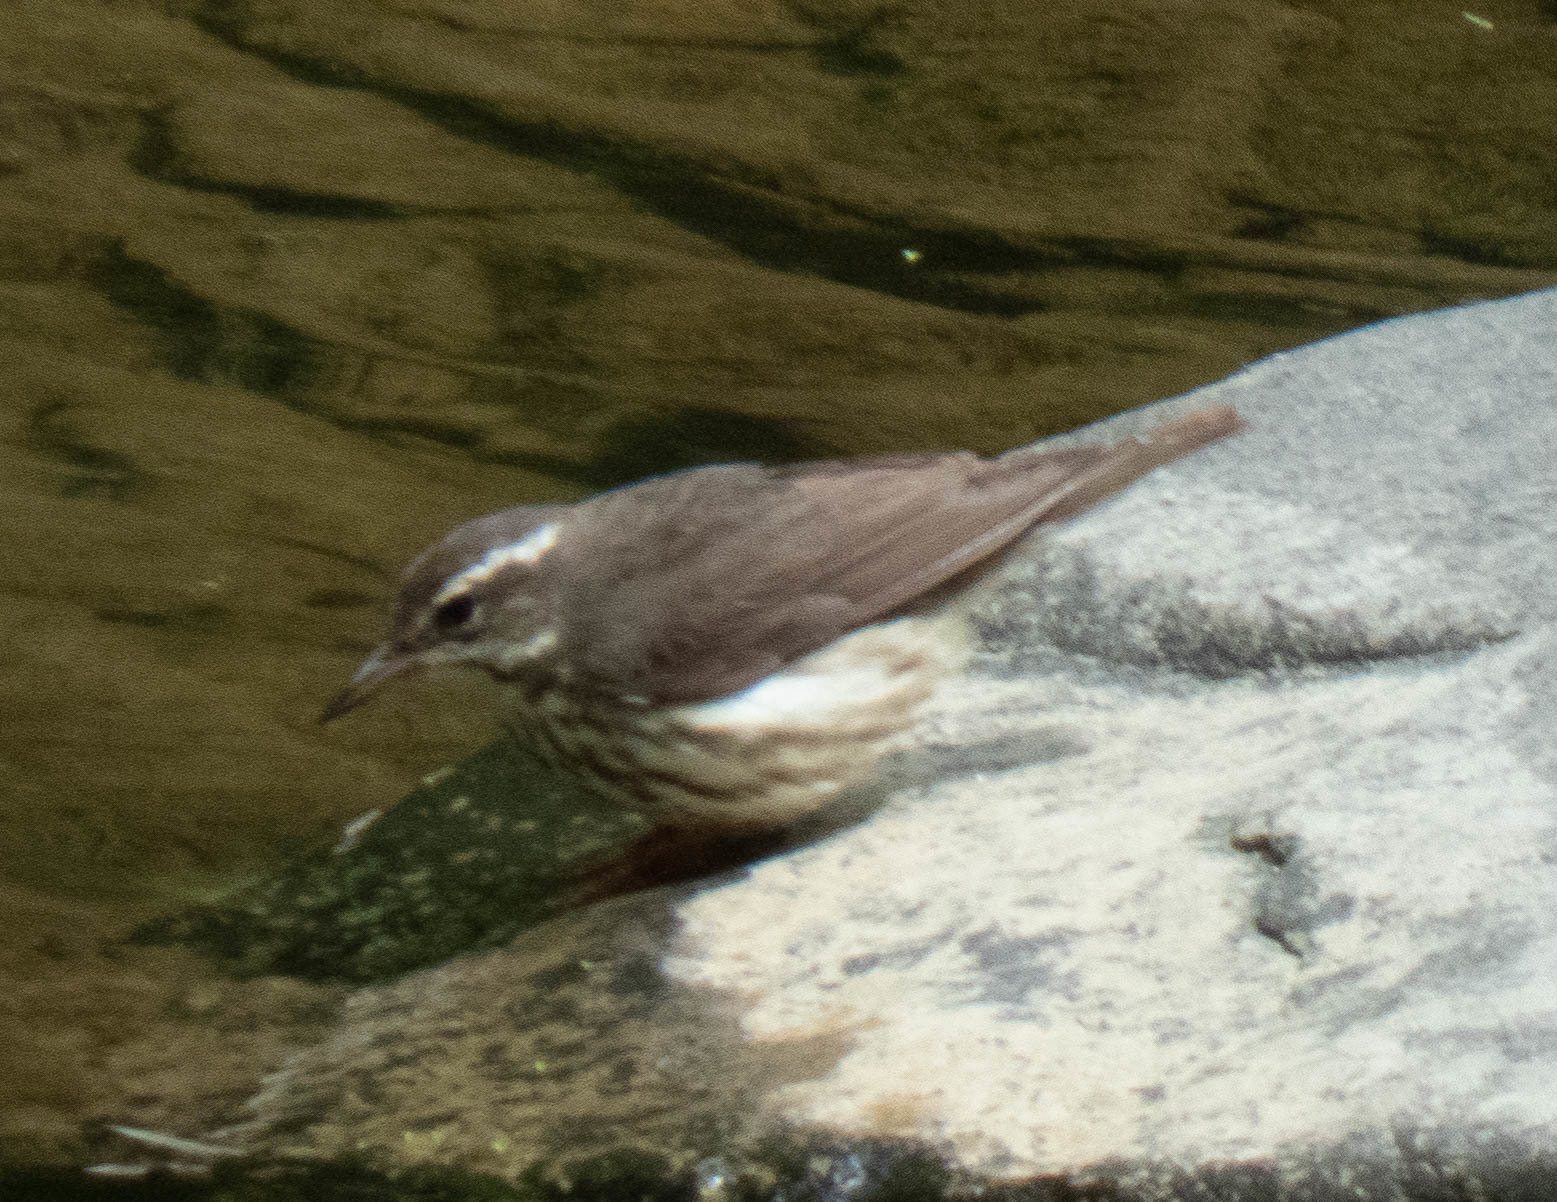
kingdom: Animalia
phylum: Chordata
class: Aves
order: Passeriformes
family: Parulidae
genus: Parkesia
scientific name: Parkesia motacilla
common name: Louisiana waterthrush
